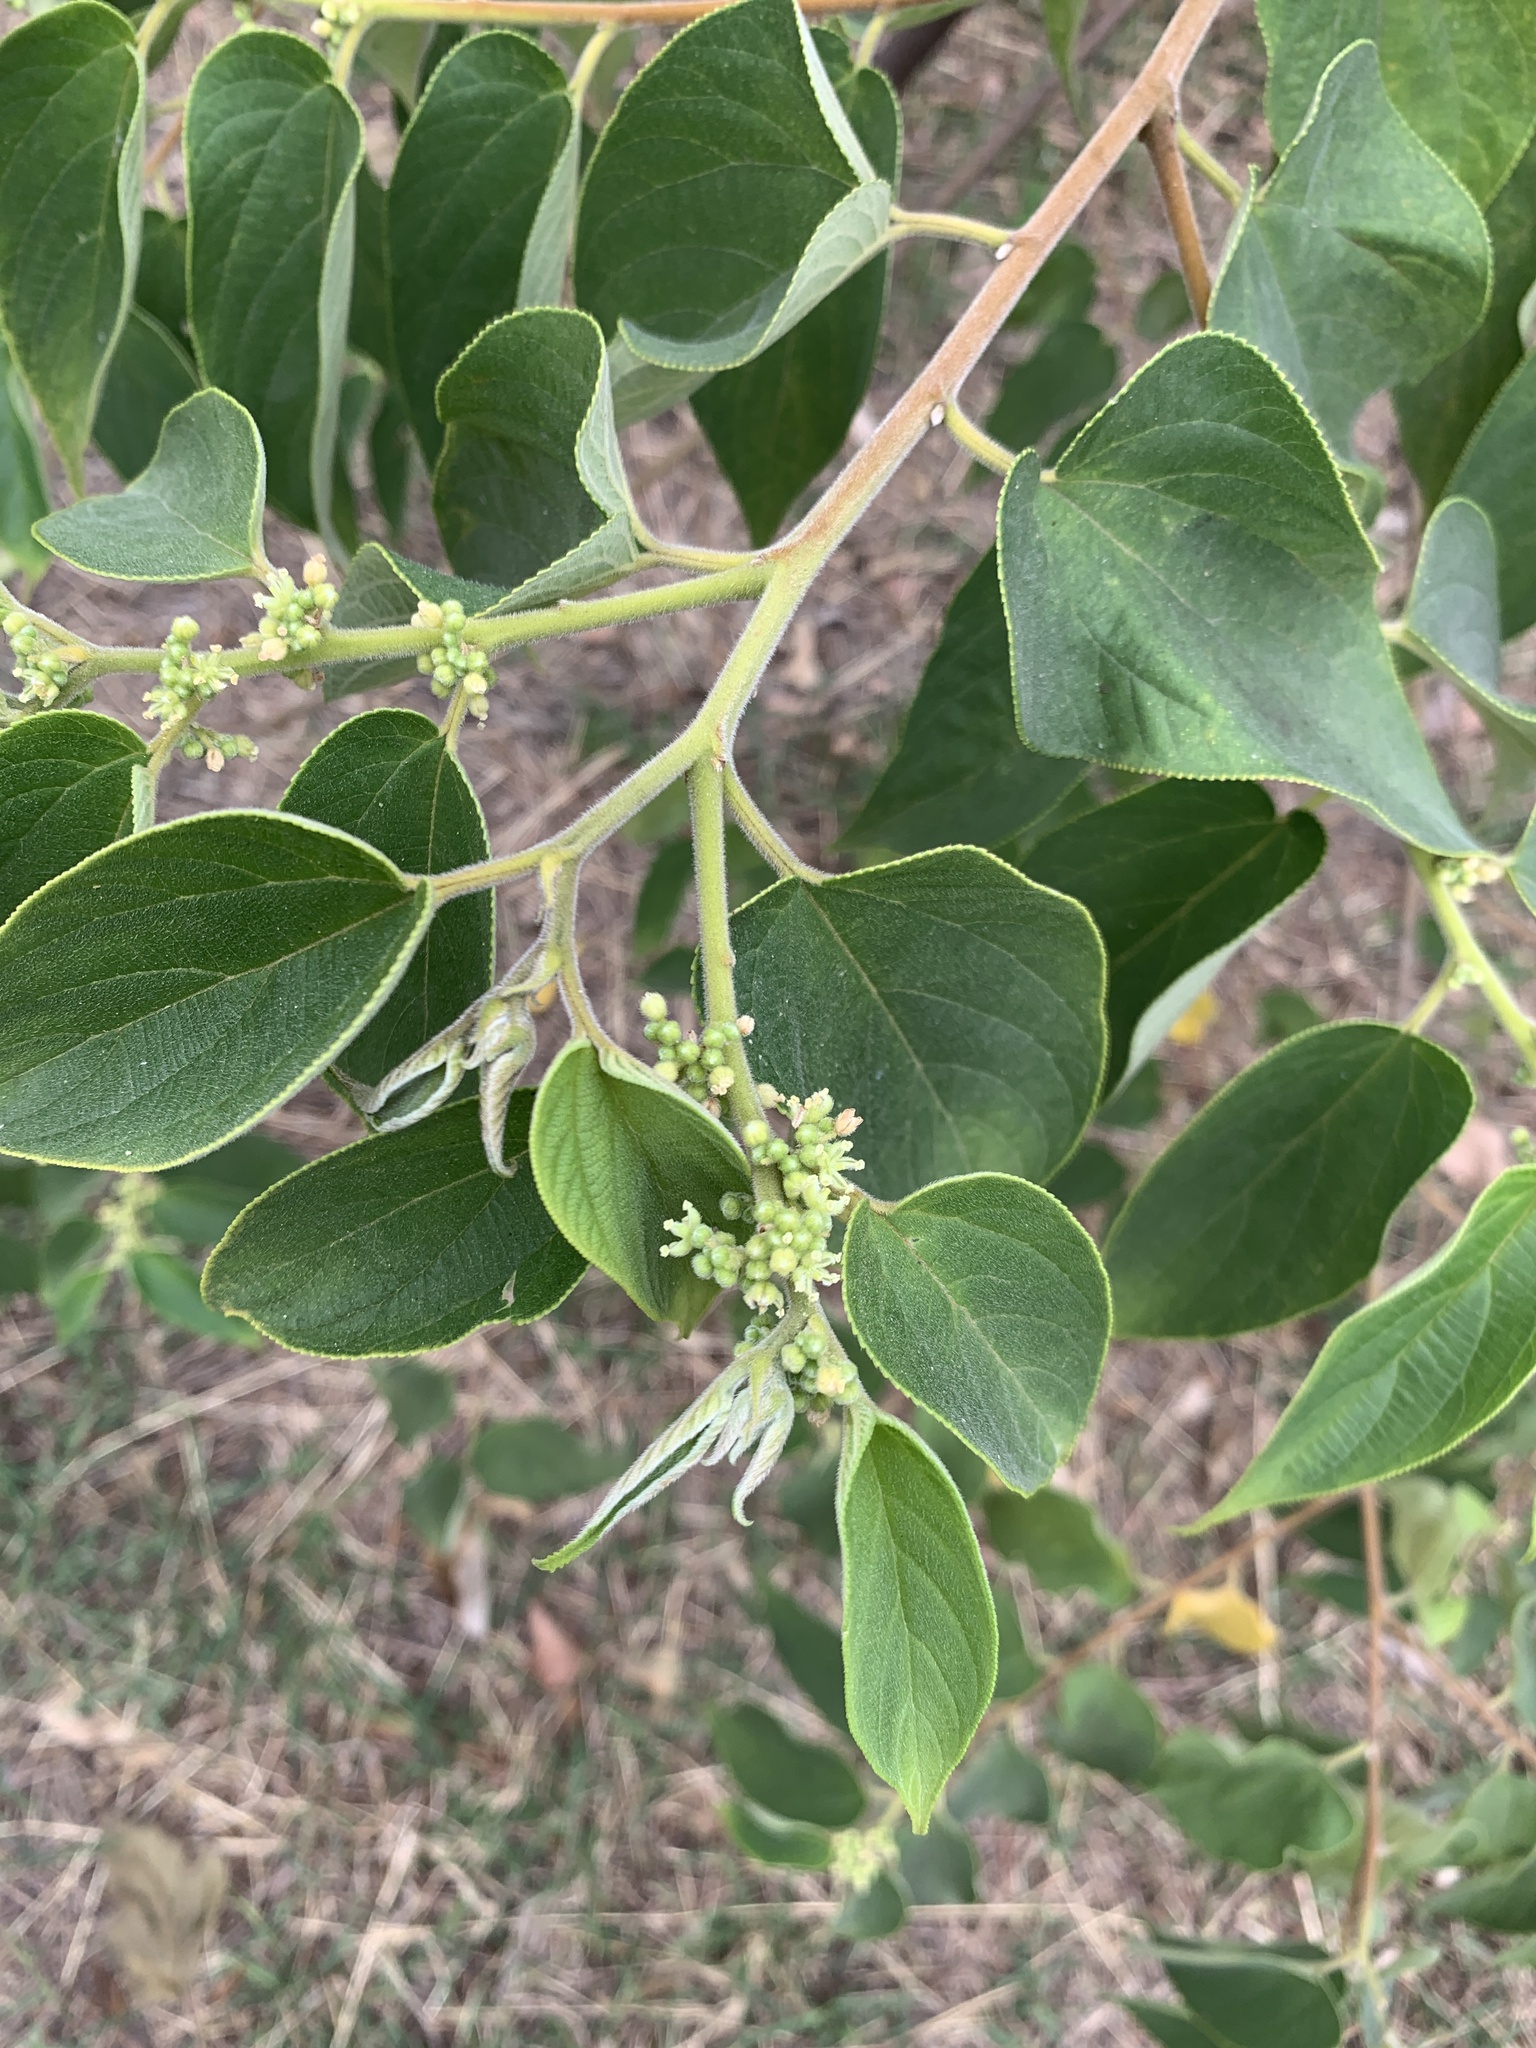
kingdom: Plantae
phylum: Tracheophyta
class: Magnoliopsida
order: Rosales
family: Cannabaceae
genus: Trema
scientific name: Trema orientale
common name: Indian charcoal tree
